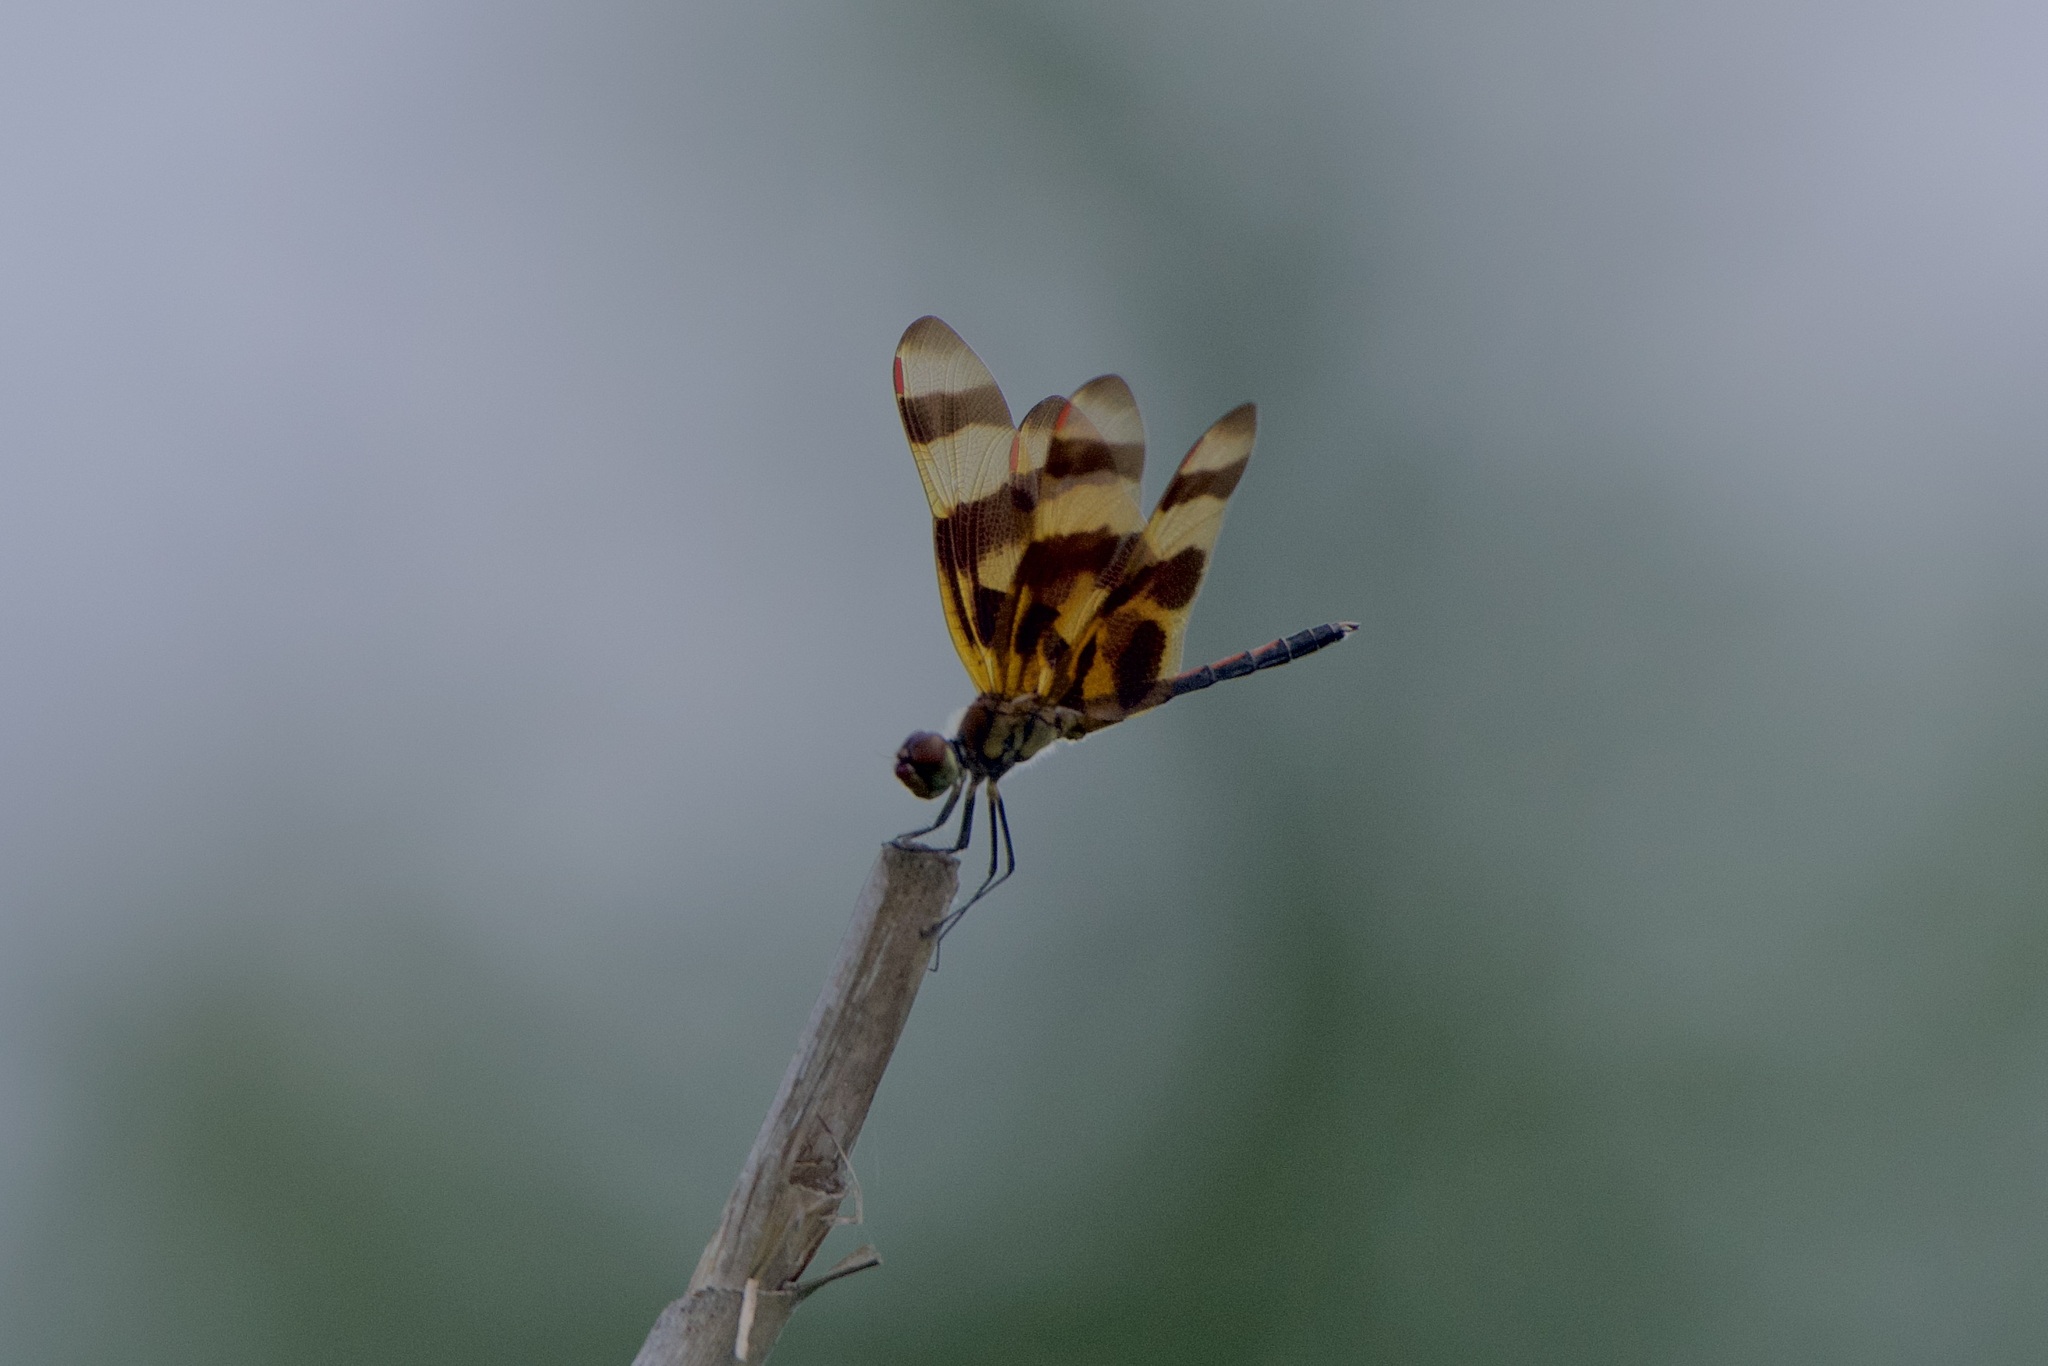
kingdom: Animalia
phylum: Arthropoda
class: Insecta
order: Odonata
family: Libellulidae
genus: Celithemis
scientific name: Celithemis eponina
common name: Halloween pennant
